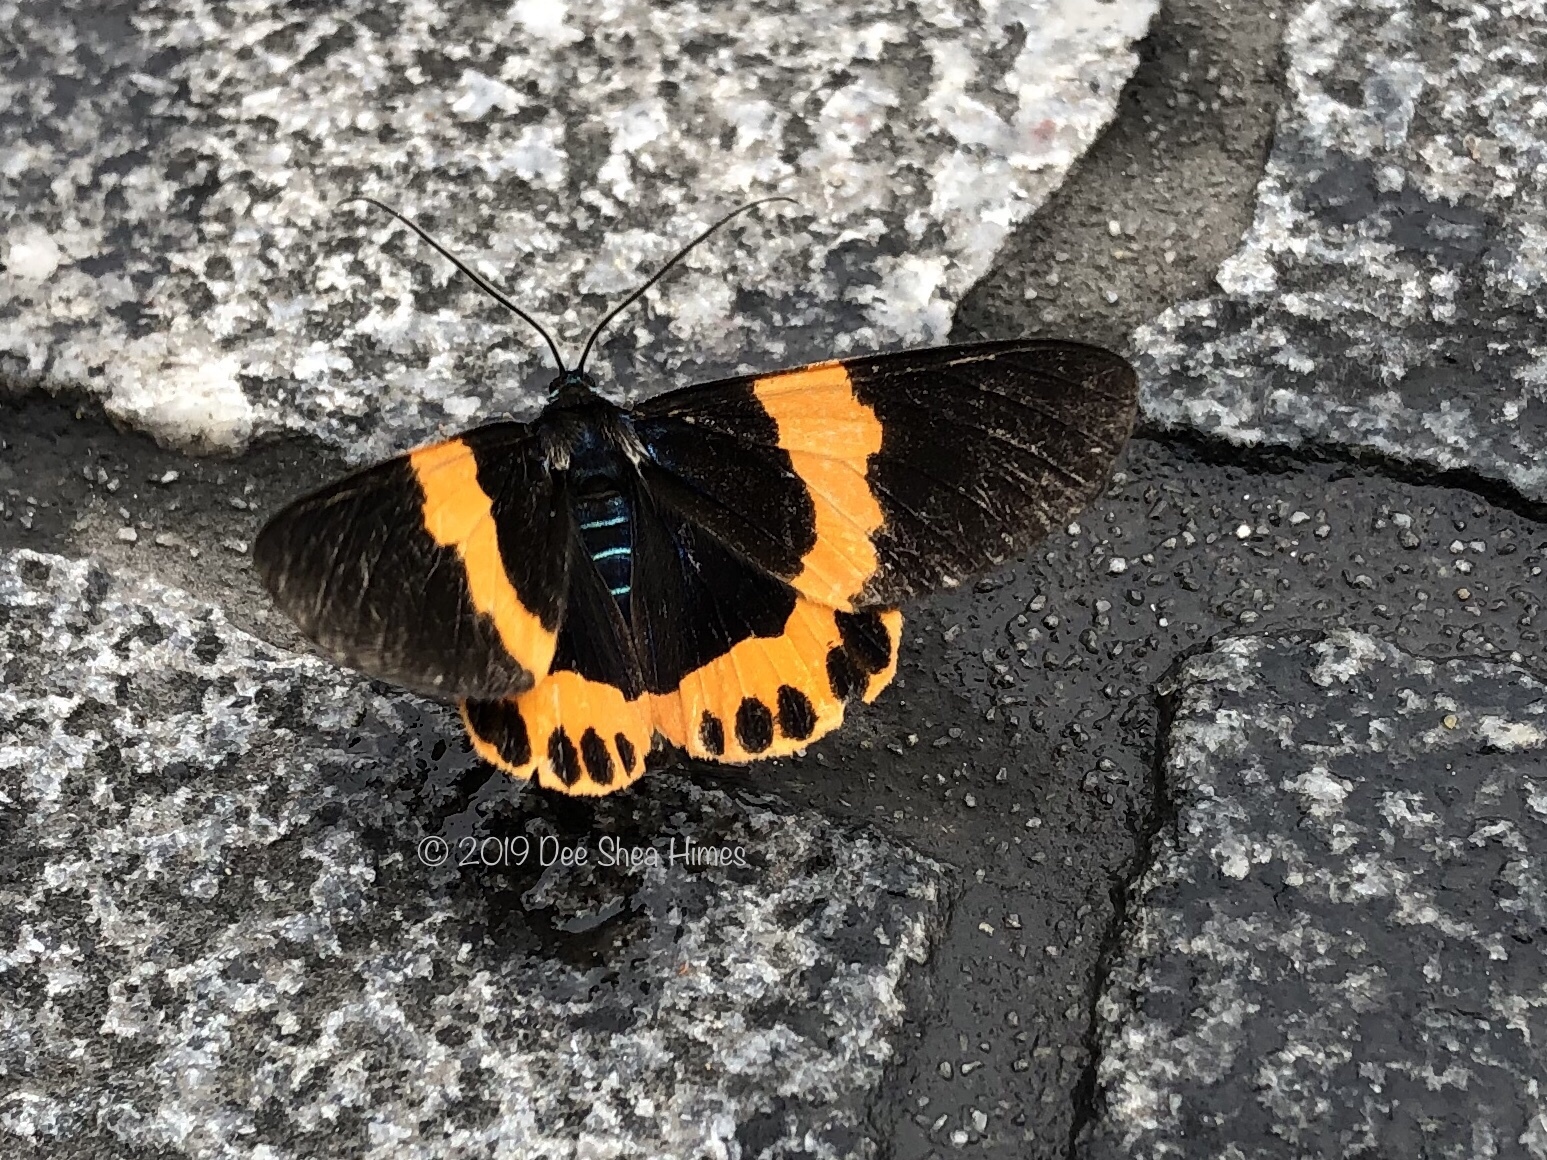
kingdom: Animalia
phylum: Arthropoda
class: Insecta
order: Lepidoptera
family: Geometridae
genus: Milionia
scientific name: Milionia basalis
